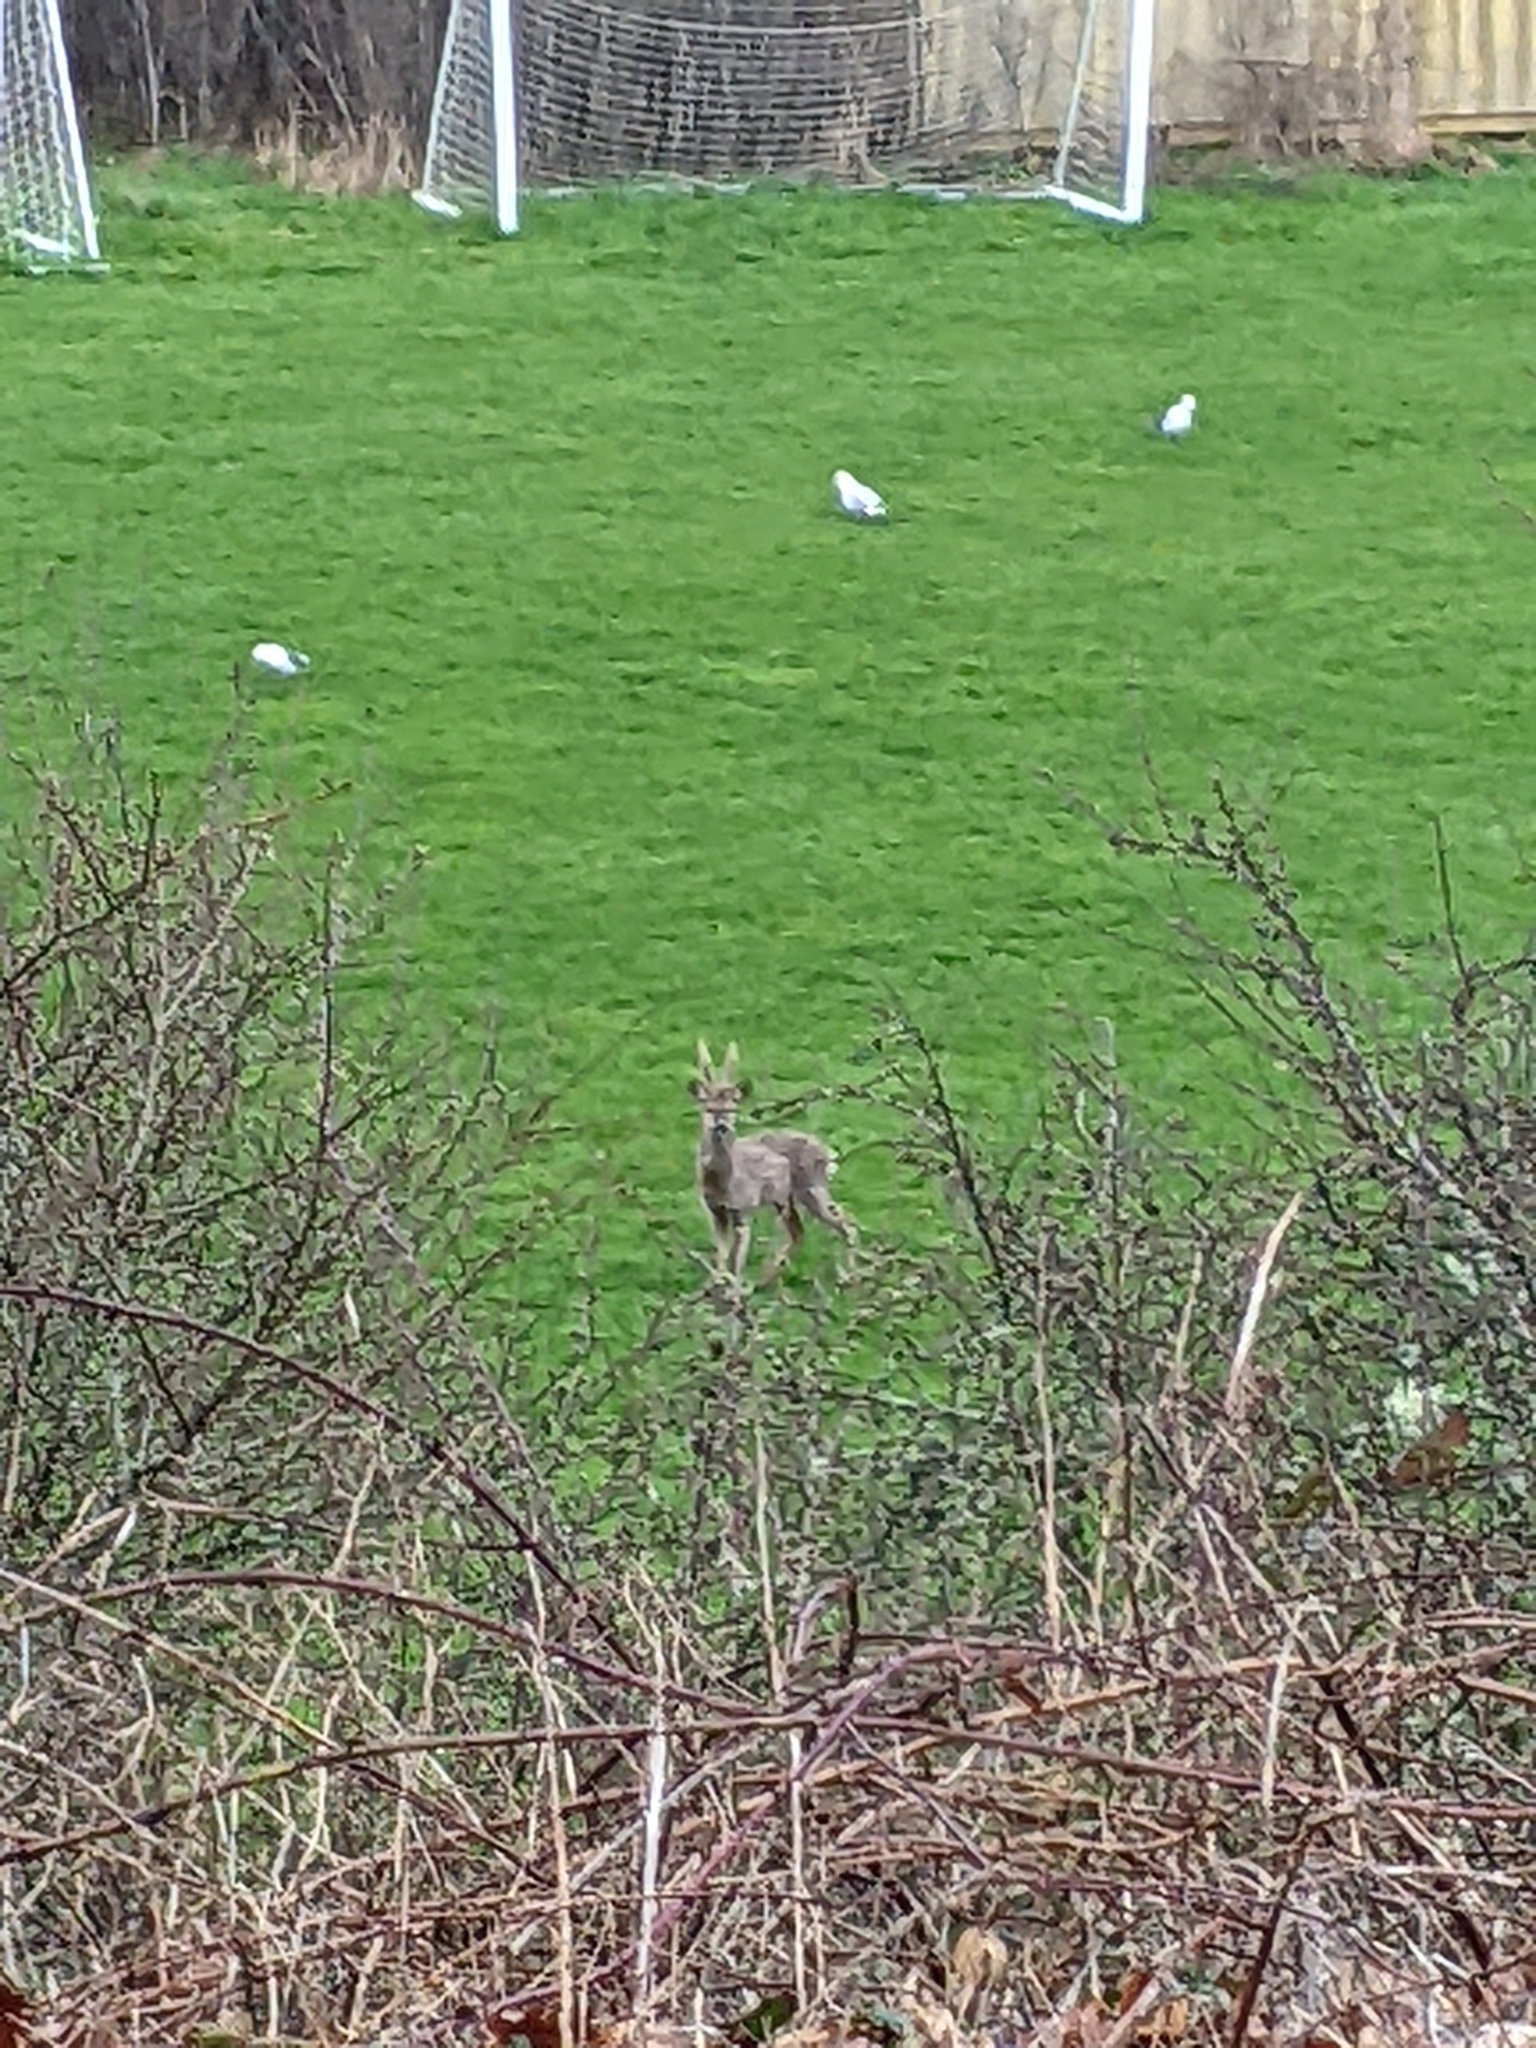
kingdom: Animalia
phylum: Chordata
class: Mammalia
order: Artiodactyla
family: Cervidae
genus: Capreolus
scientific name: Capreolus capreolus
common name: Western roe deer
